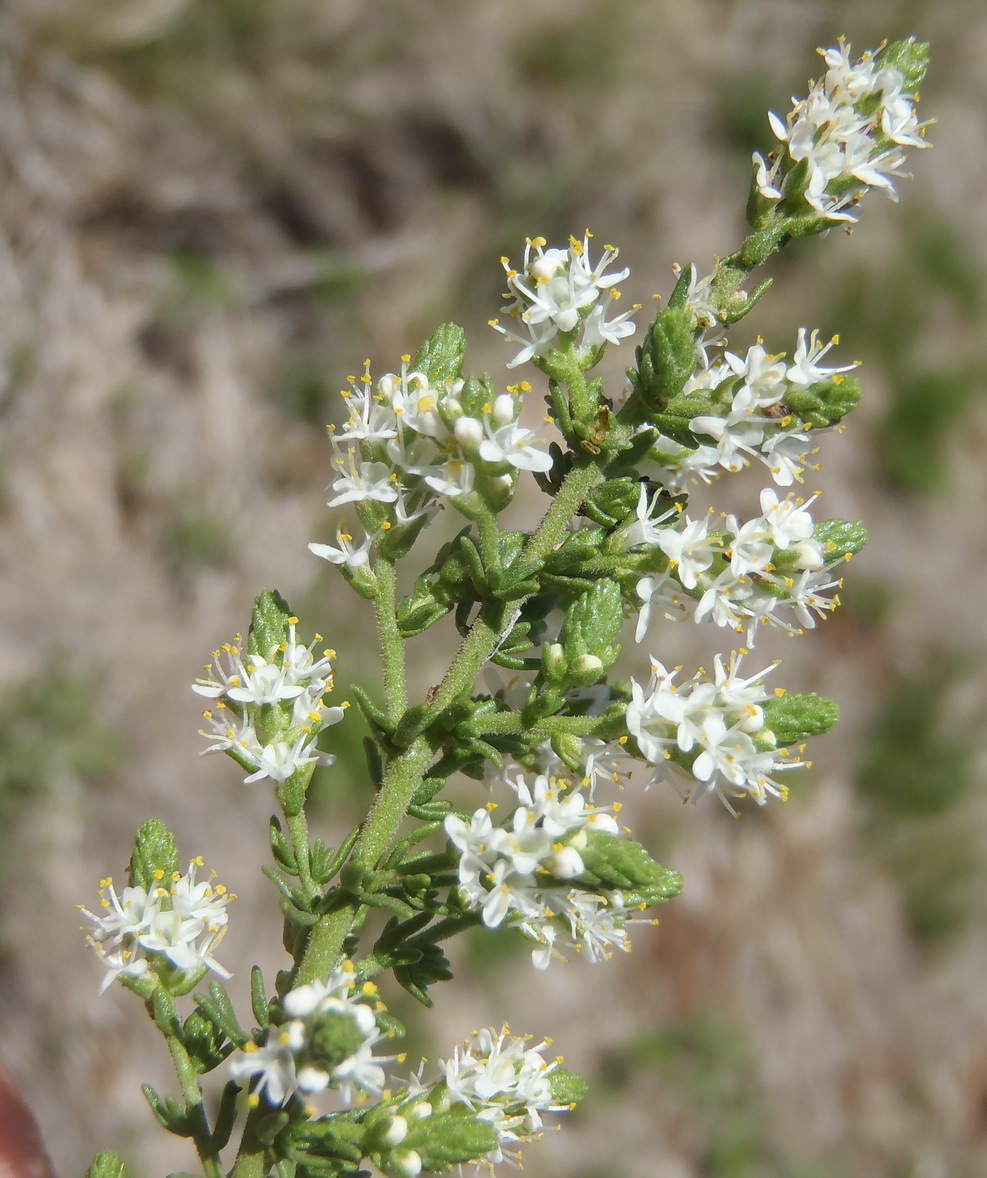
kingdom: Plantae
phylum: Tracheophyta
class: Magnoliopsida
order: Lamiales
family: Scrophulariaceae
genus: Selago
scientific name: Selago densiflora
